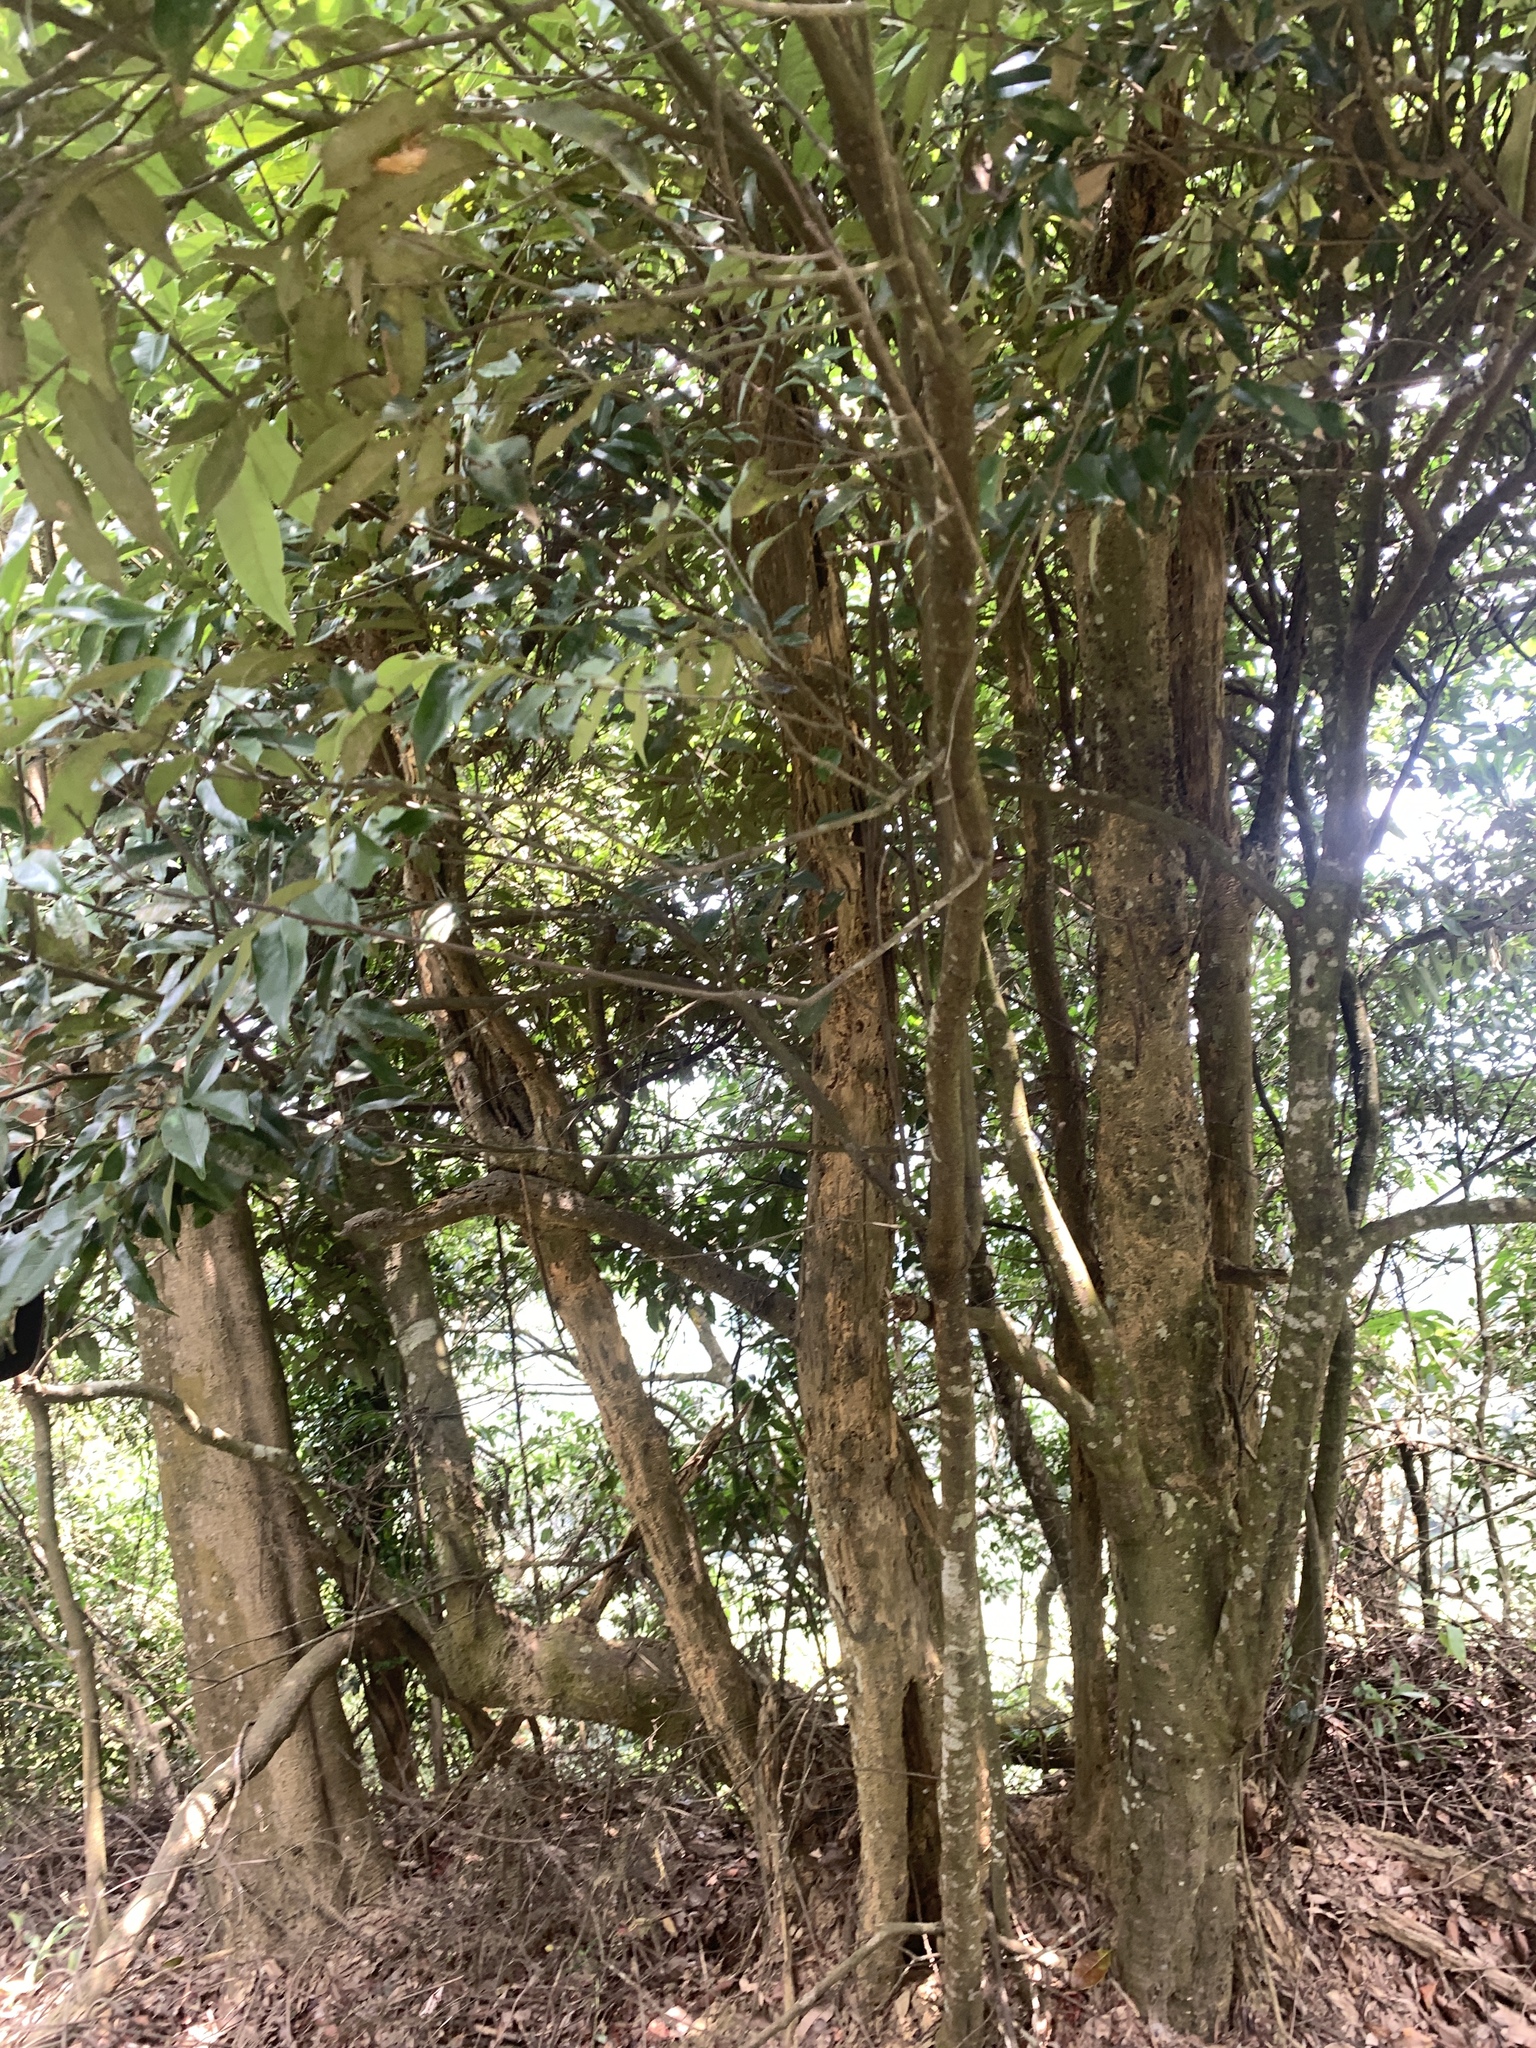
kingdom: Plantae
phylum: Tracheophyta
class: Magnoliopsida
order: Fagales
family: Fagaceae
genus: Castanopsis
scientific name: Castanopsis carlesii
